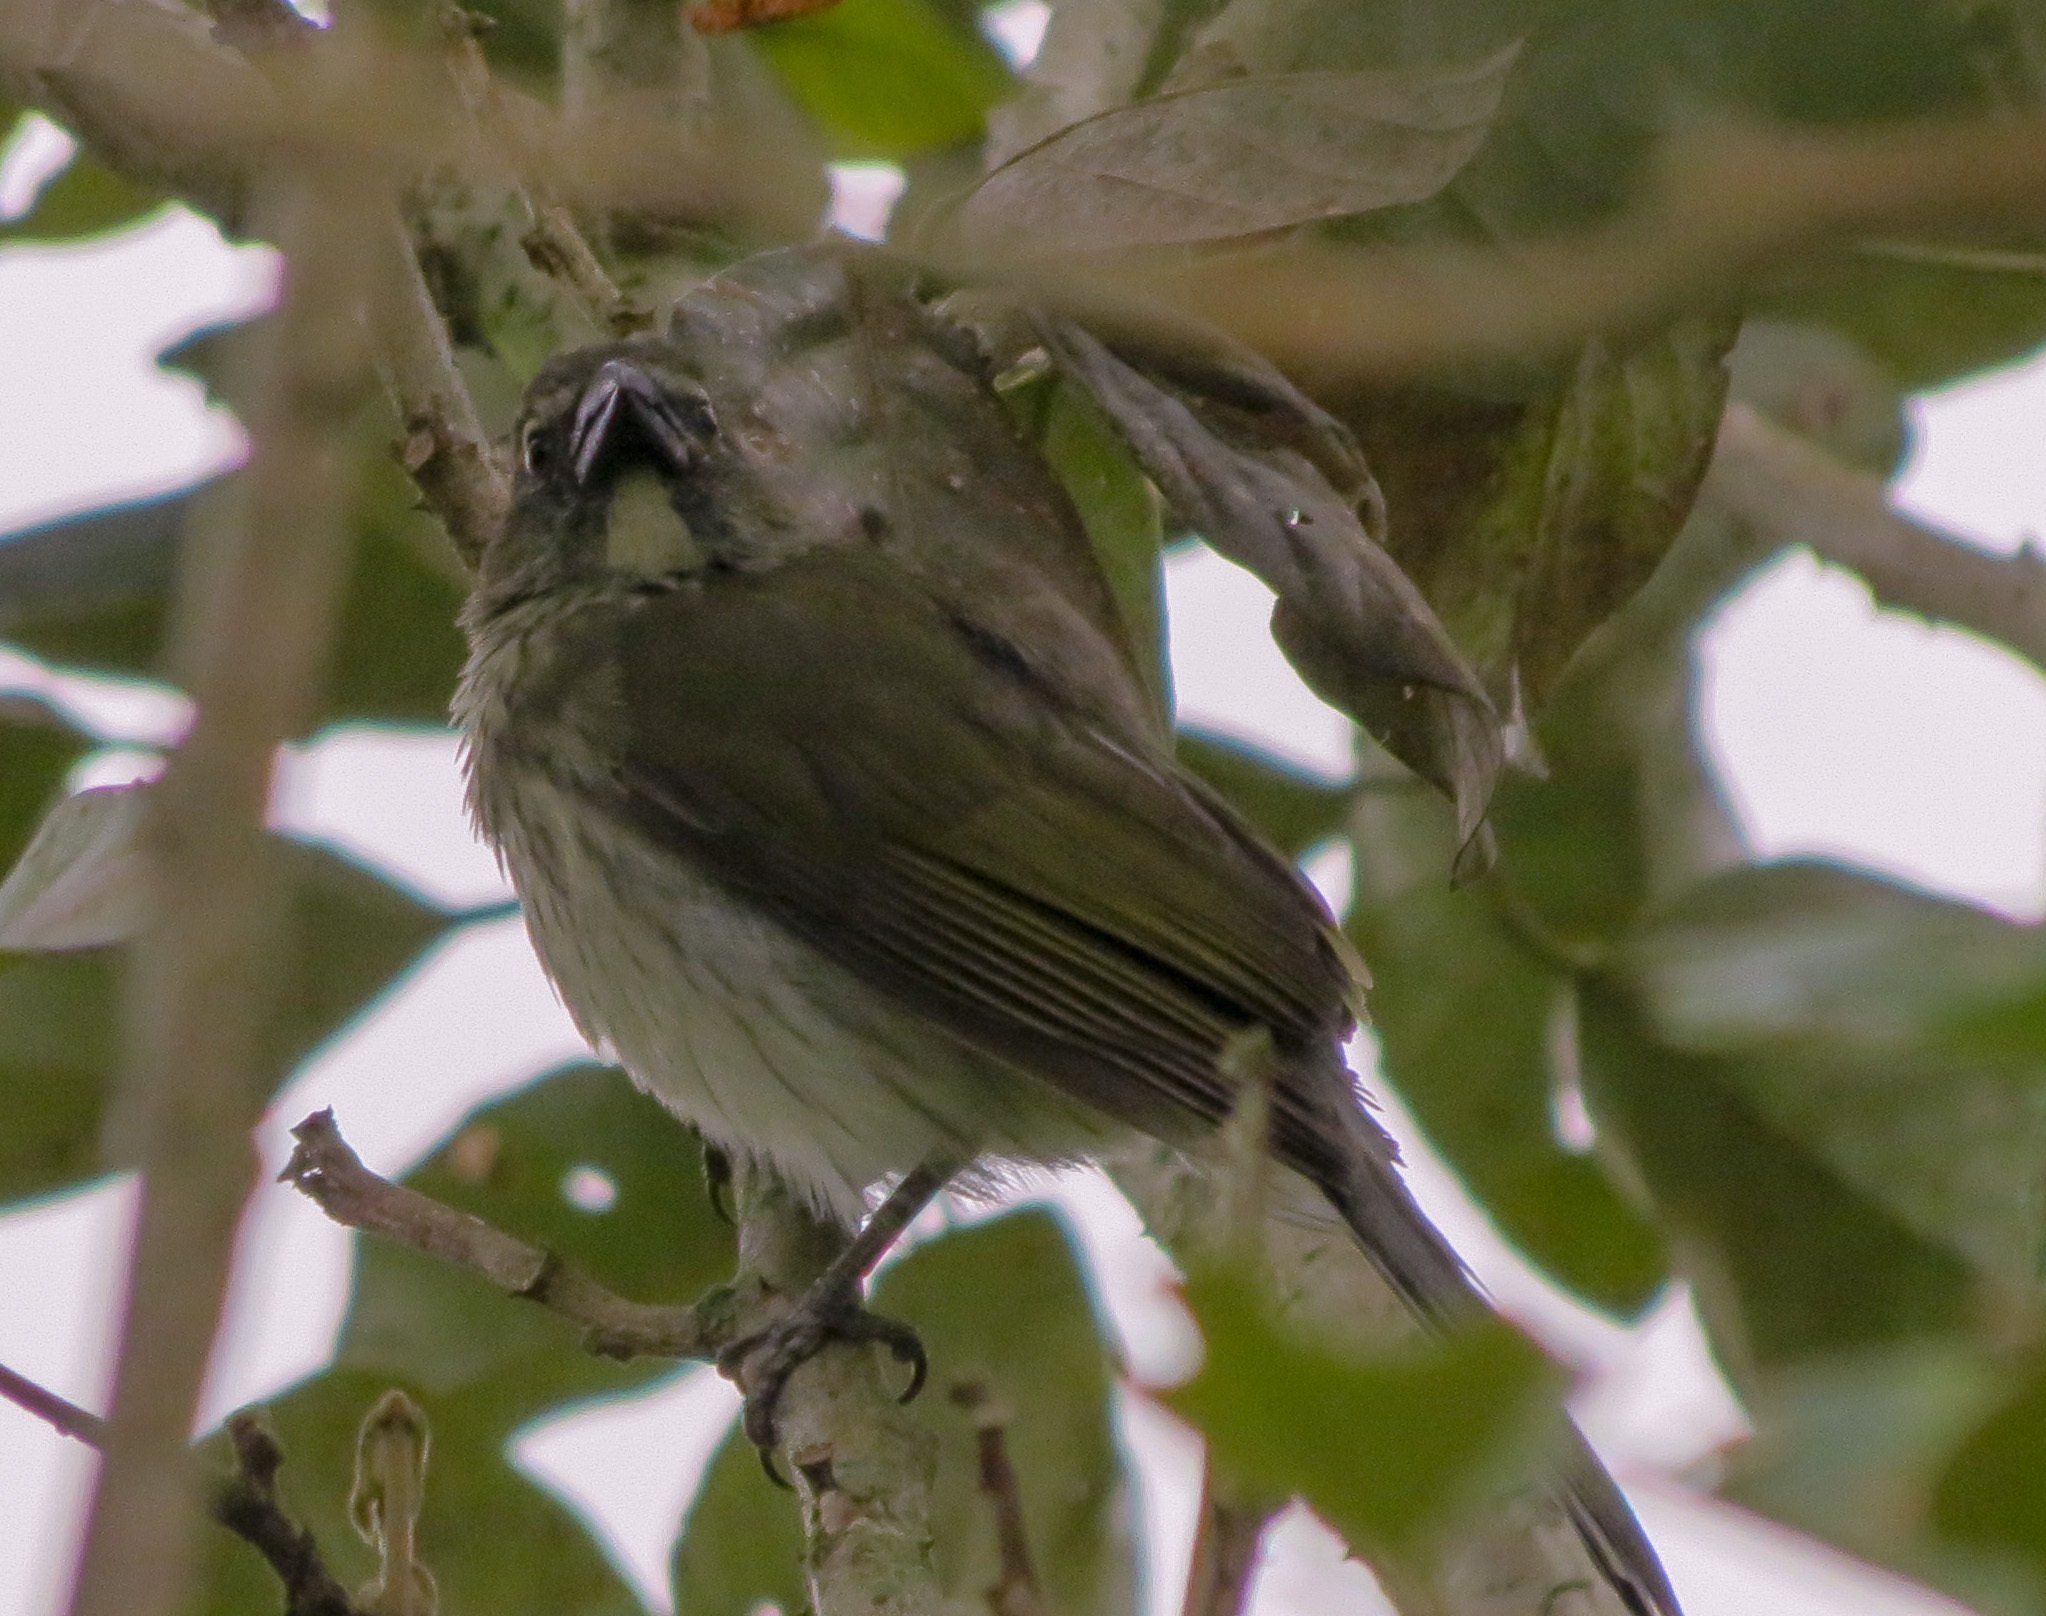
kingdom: Animalia
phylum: Chordata
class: Aves
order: Passeriformes
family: Thraupidae
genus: Saltator
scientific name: Saltator striatipectus
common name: Streaked saltator
